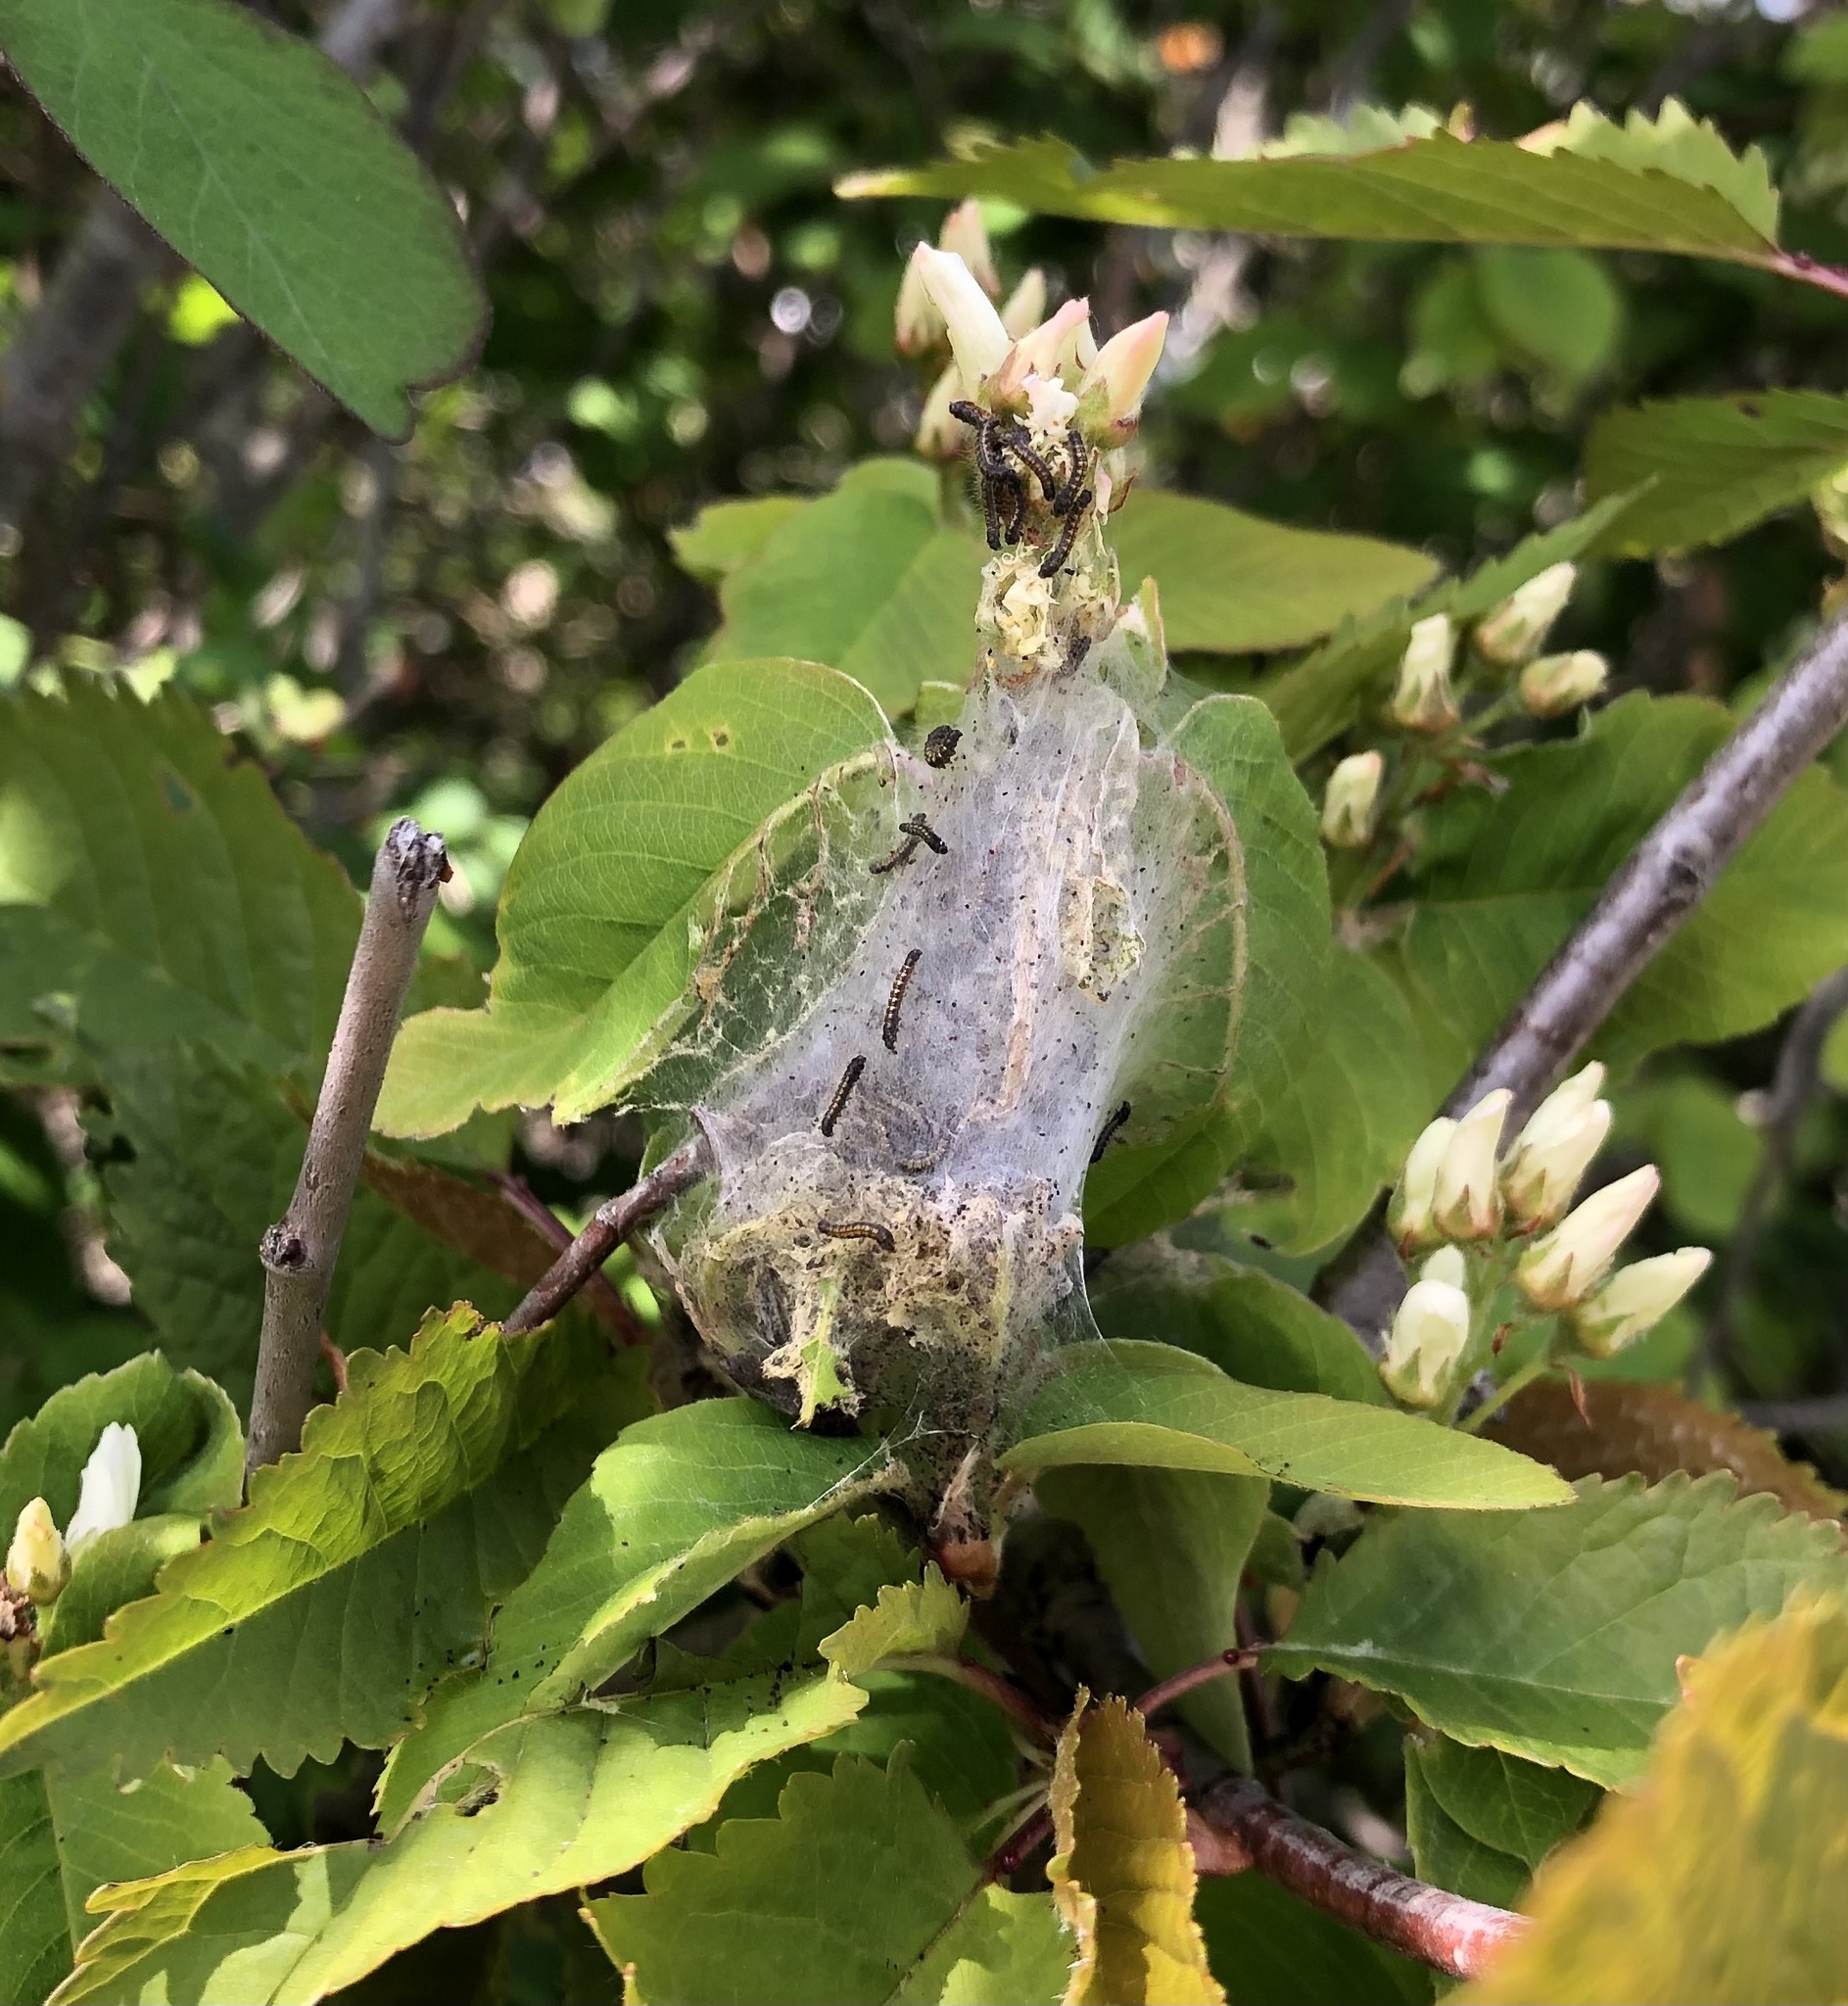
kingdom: Animalia
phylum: Arthropoda
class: Insecta
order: Lepidoptera
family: Lasiocampidae
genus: Malacosoma
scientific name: Malacosoma californica
